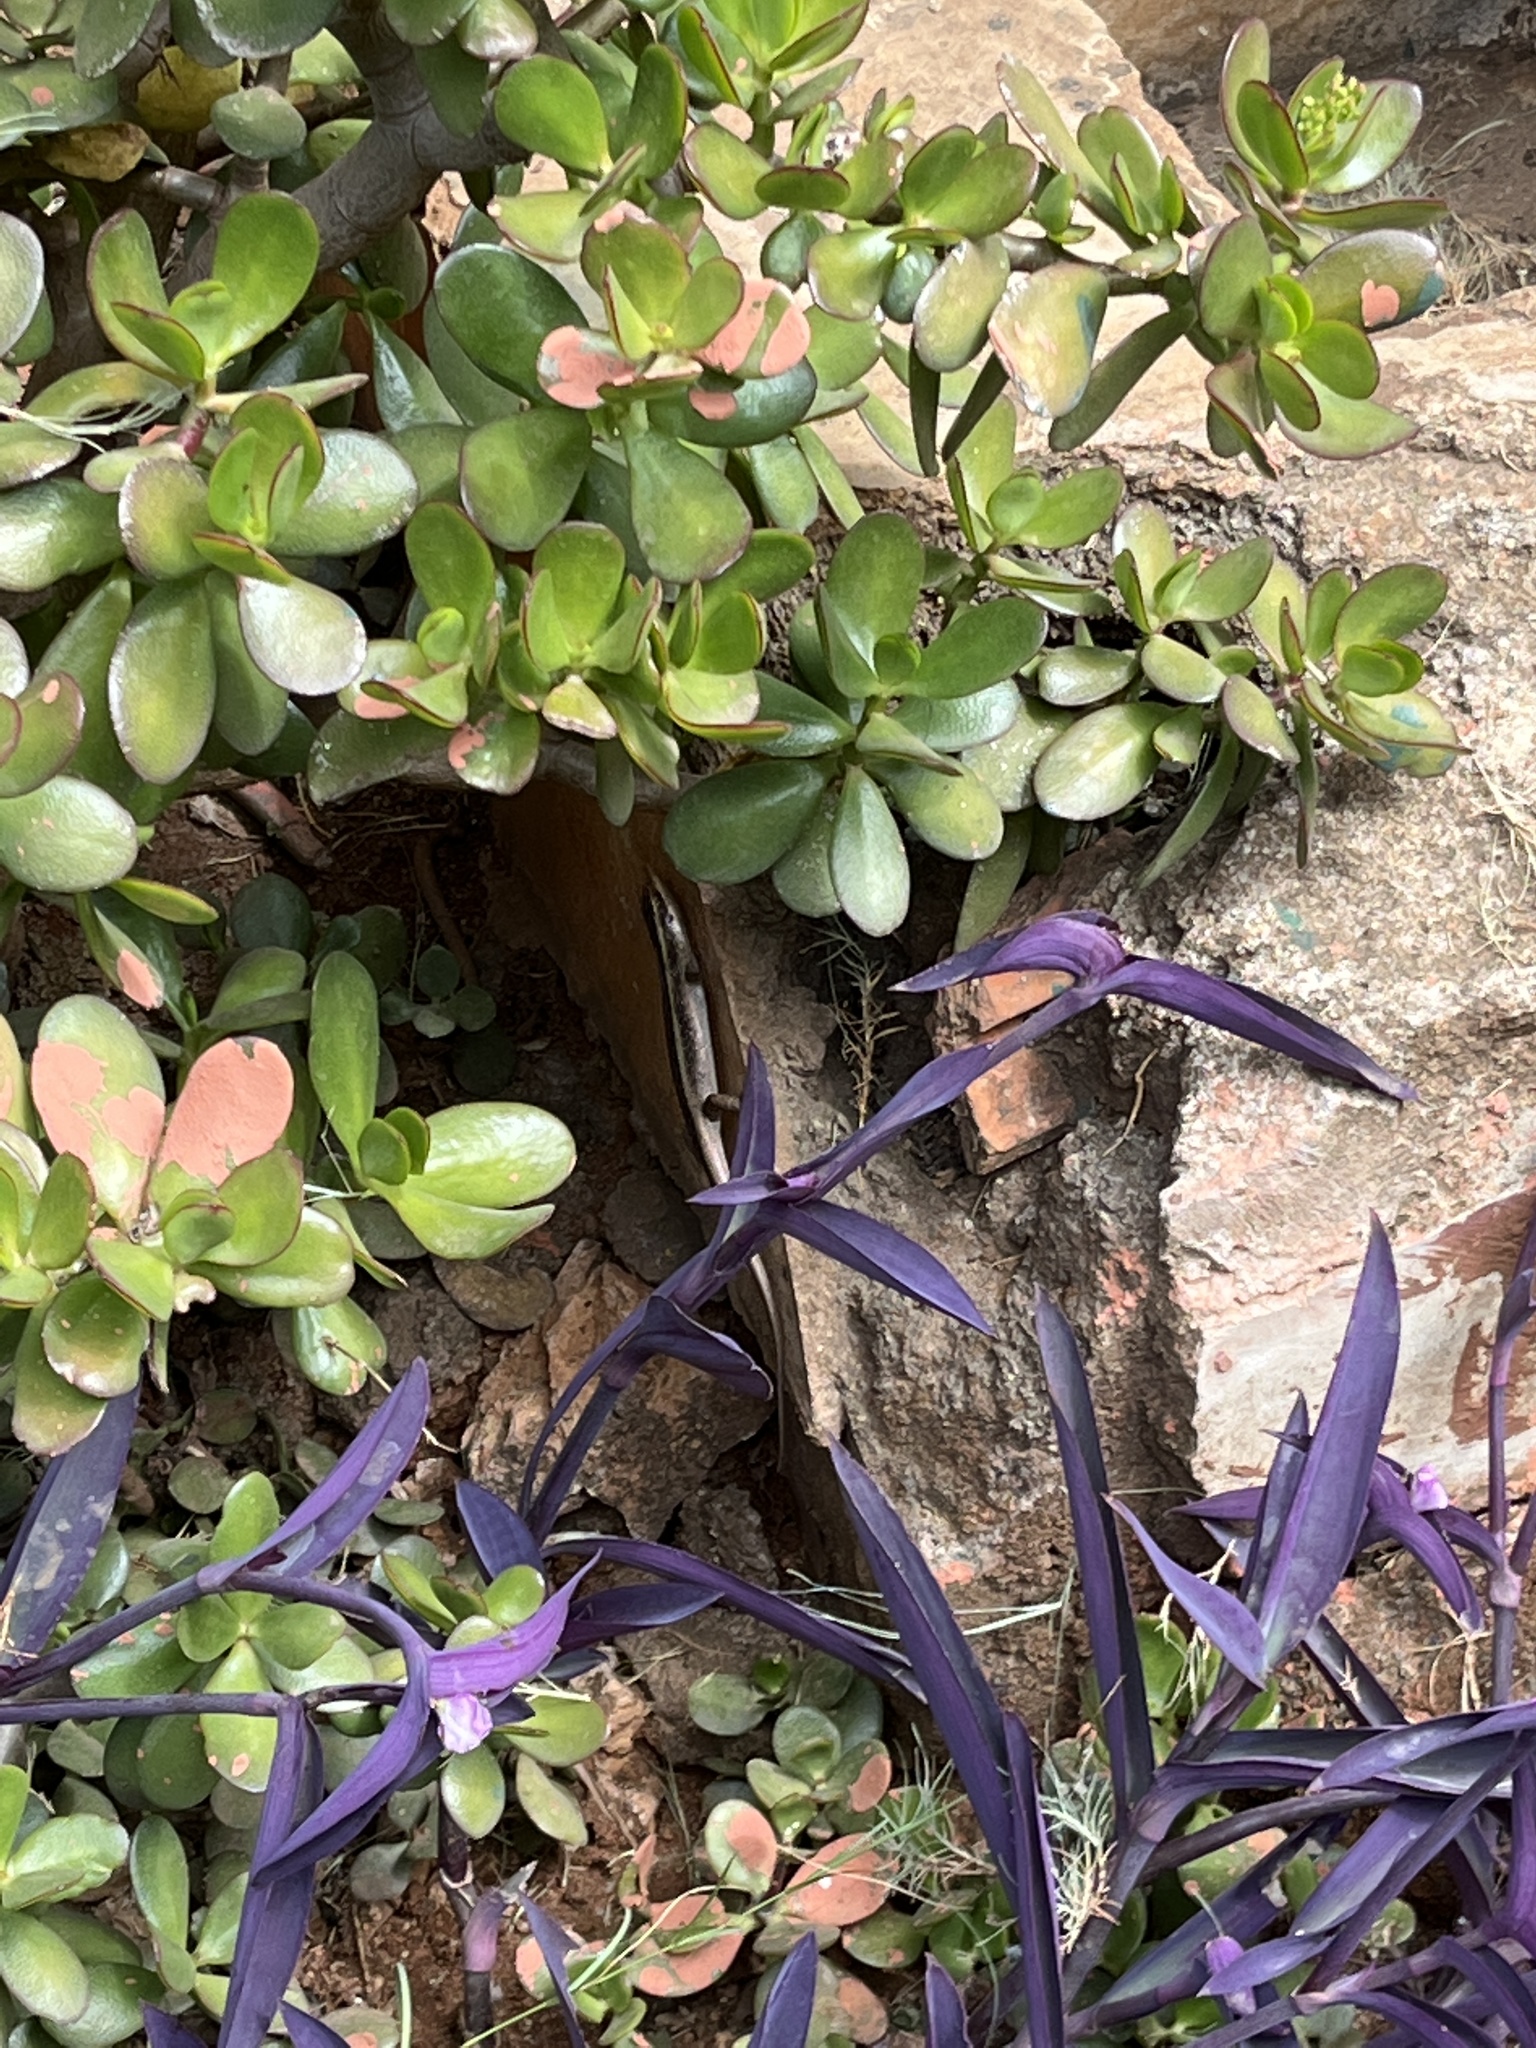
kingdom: Animalia
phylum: Chordata
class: Squamata
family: Scincidae
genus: Trachylepis
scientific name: Trachylepis striata
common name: African striped mabuya
